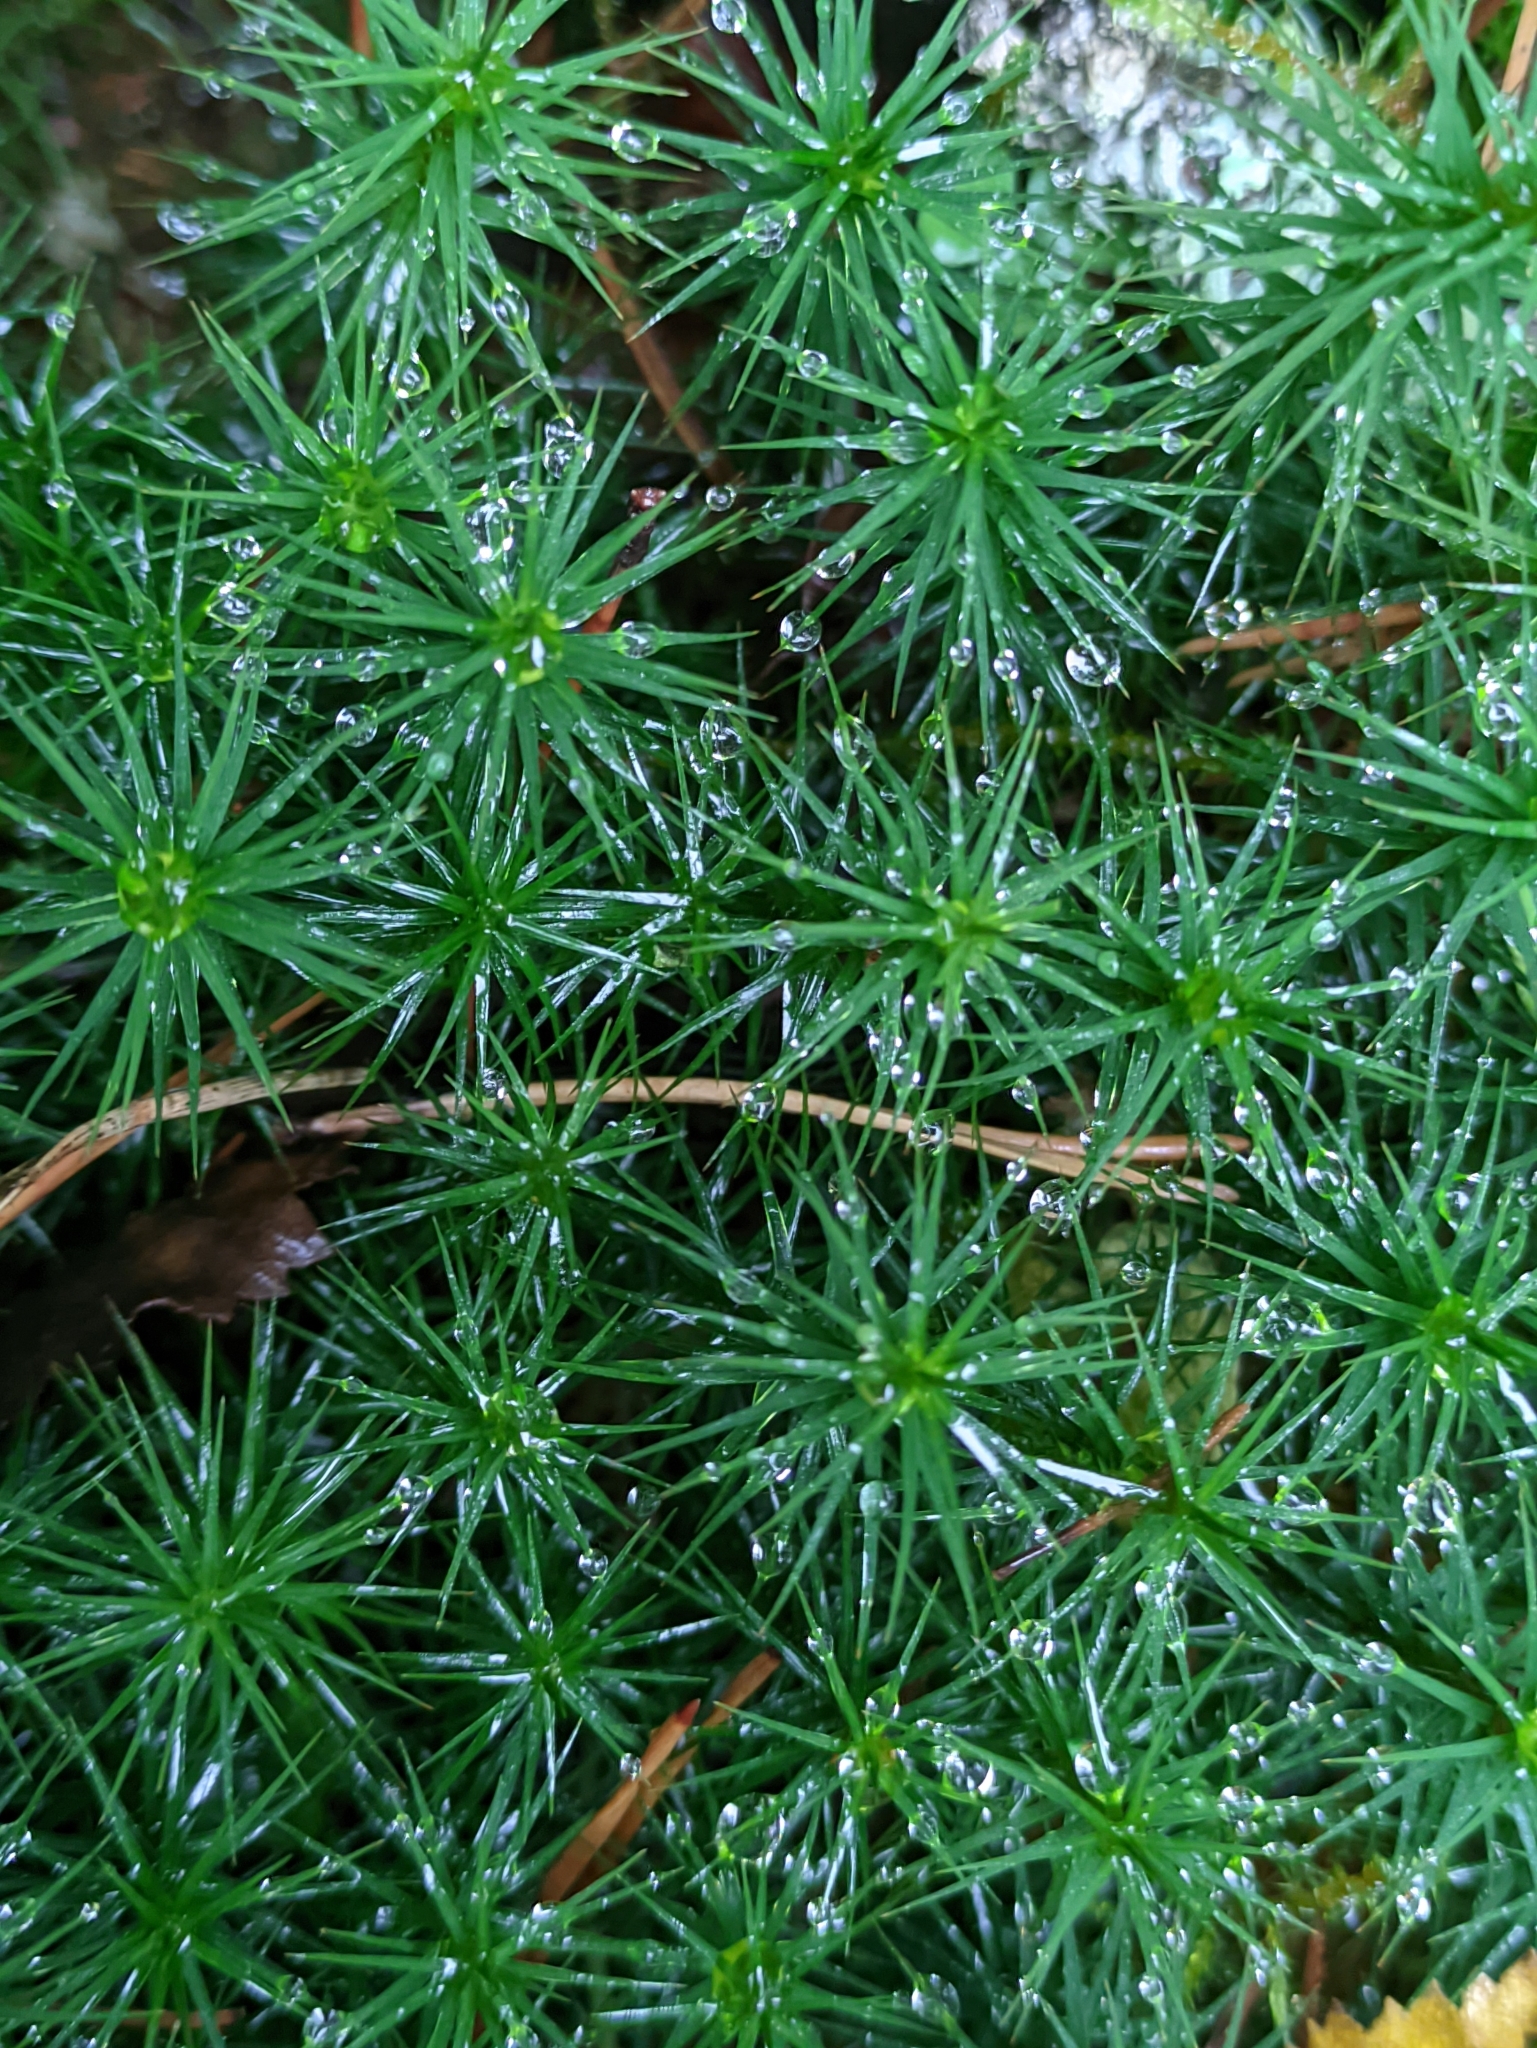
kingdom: Plantae
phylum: Bryophyta
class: Polytrichopsida
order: Polytrichales
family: Polytrichaceae
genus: Polytrichum
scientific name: Polytrichum commune
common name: Common haircap
